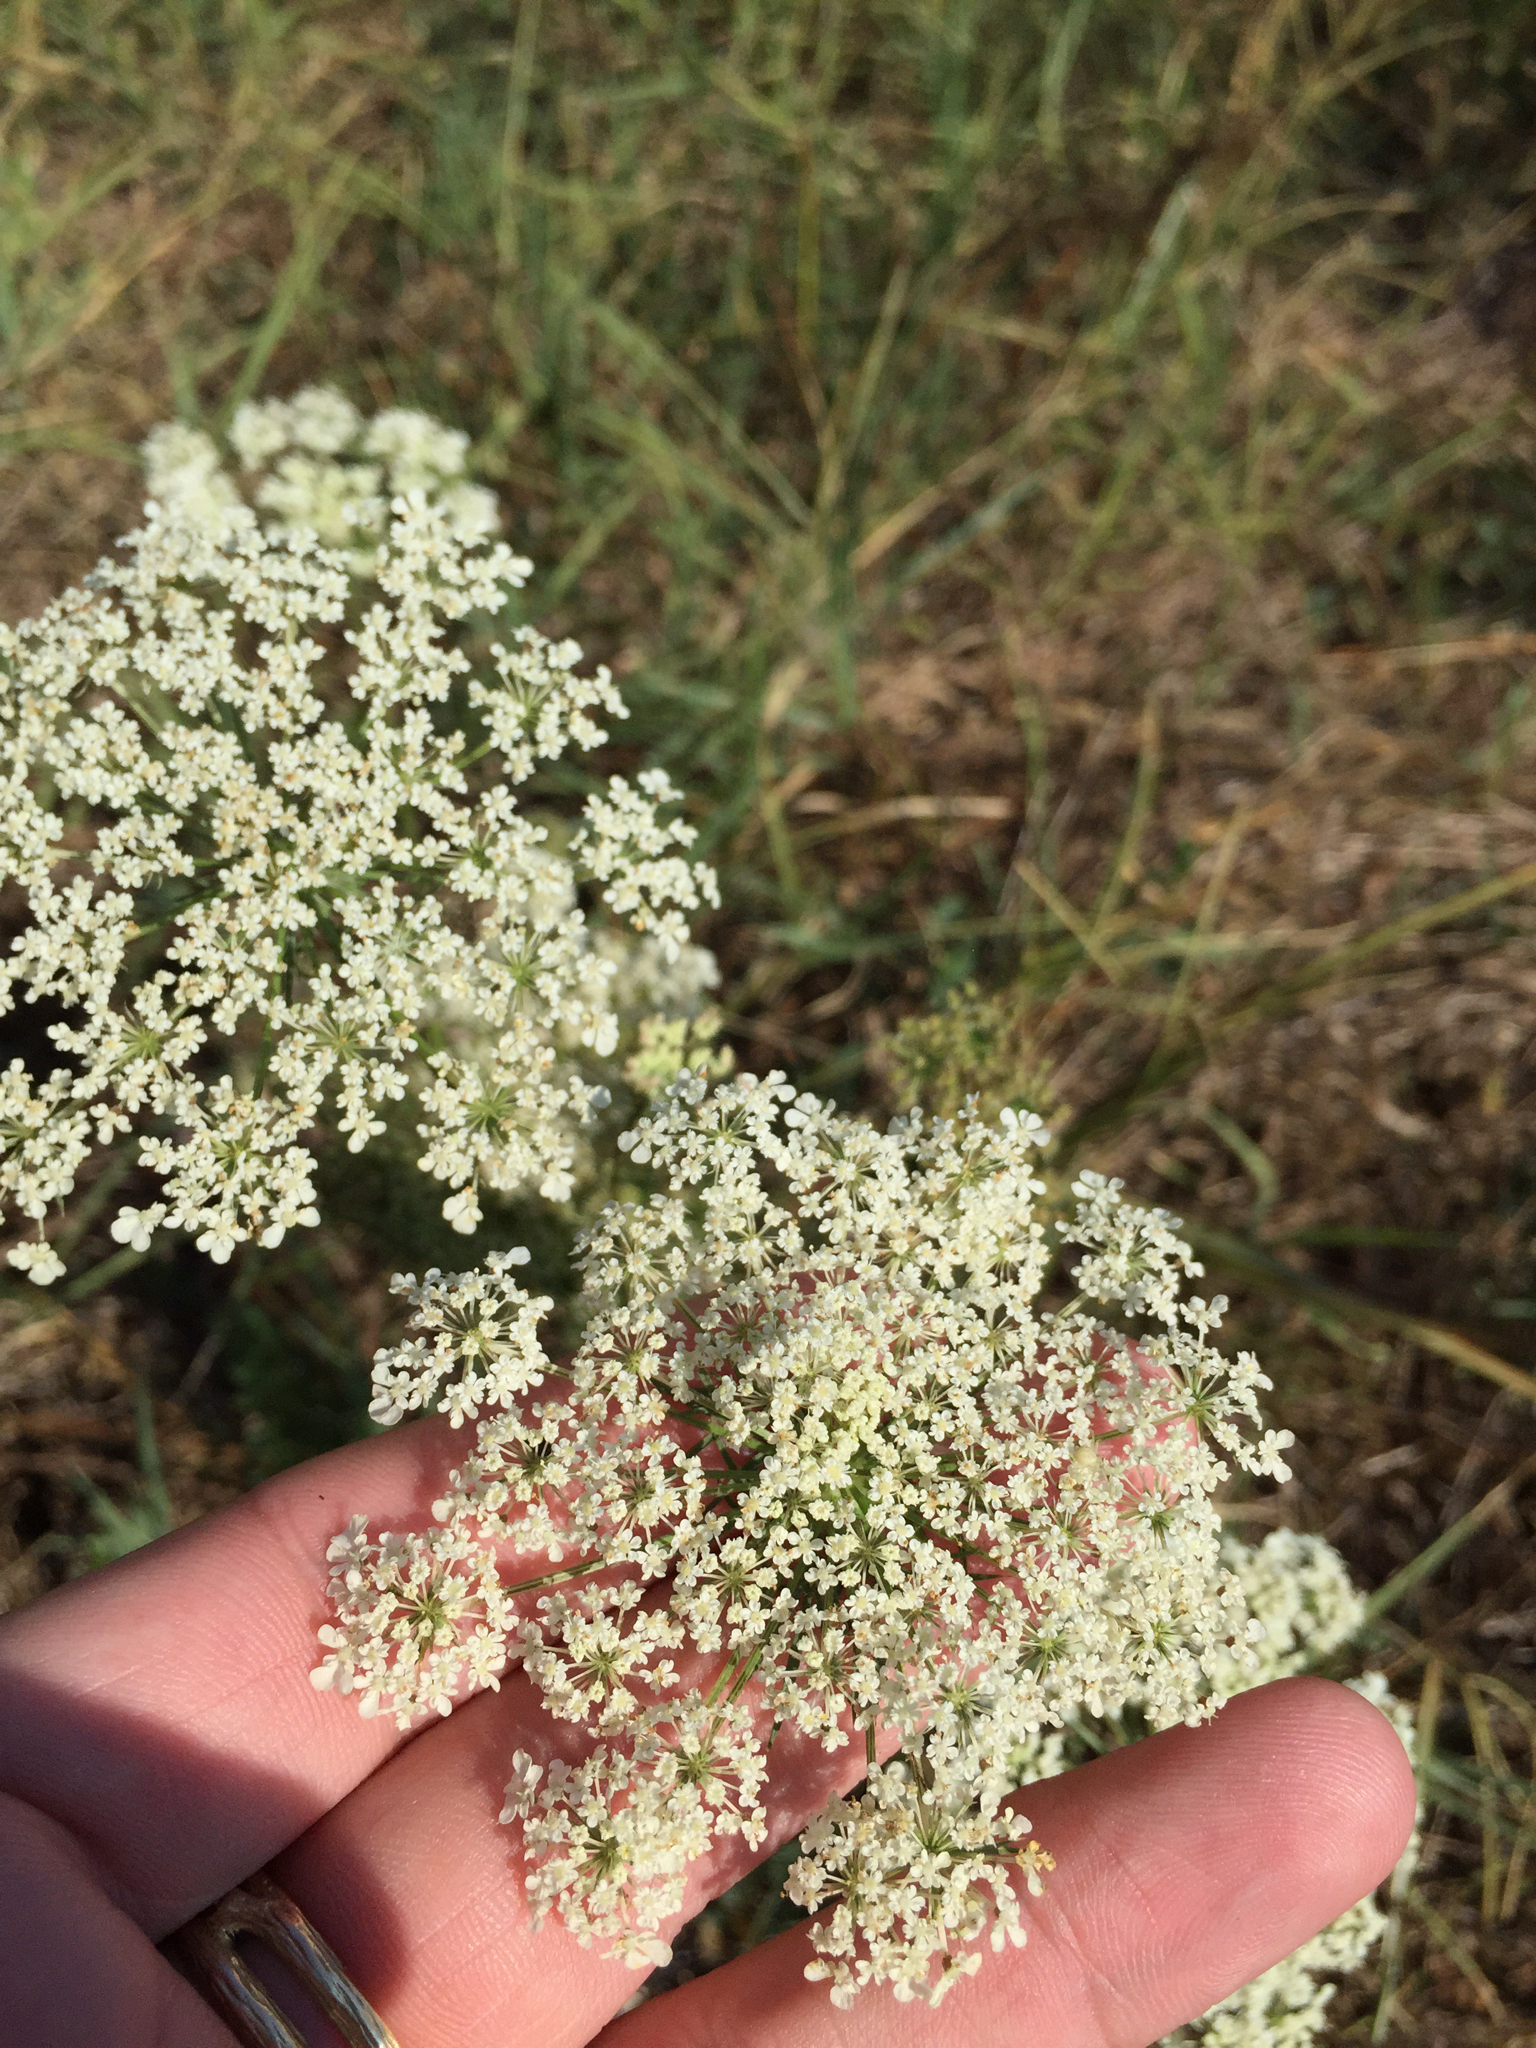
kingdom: Plantae
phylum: Tracheophyta
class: Magnoliopsida
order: Apiales
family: Apiaceae
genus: Daucus
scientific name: Daucus carota
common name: Wild carrot
